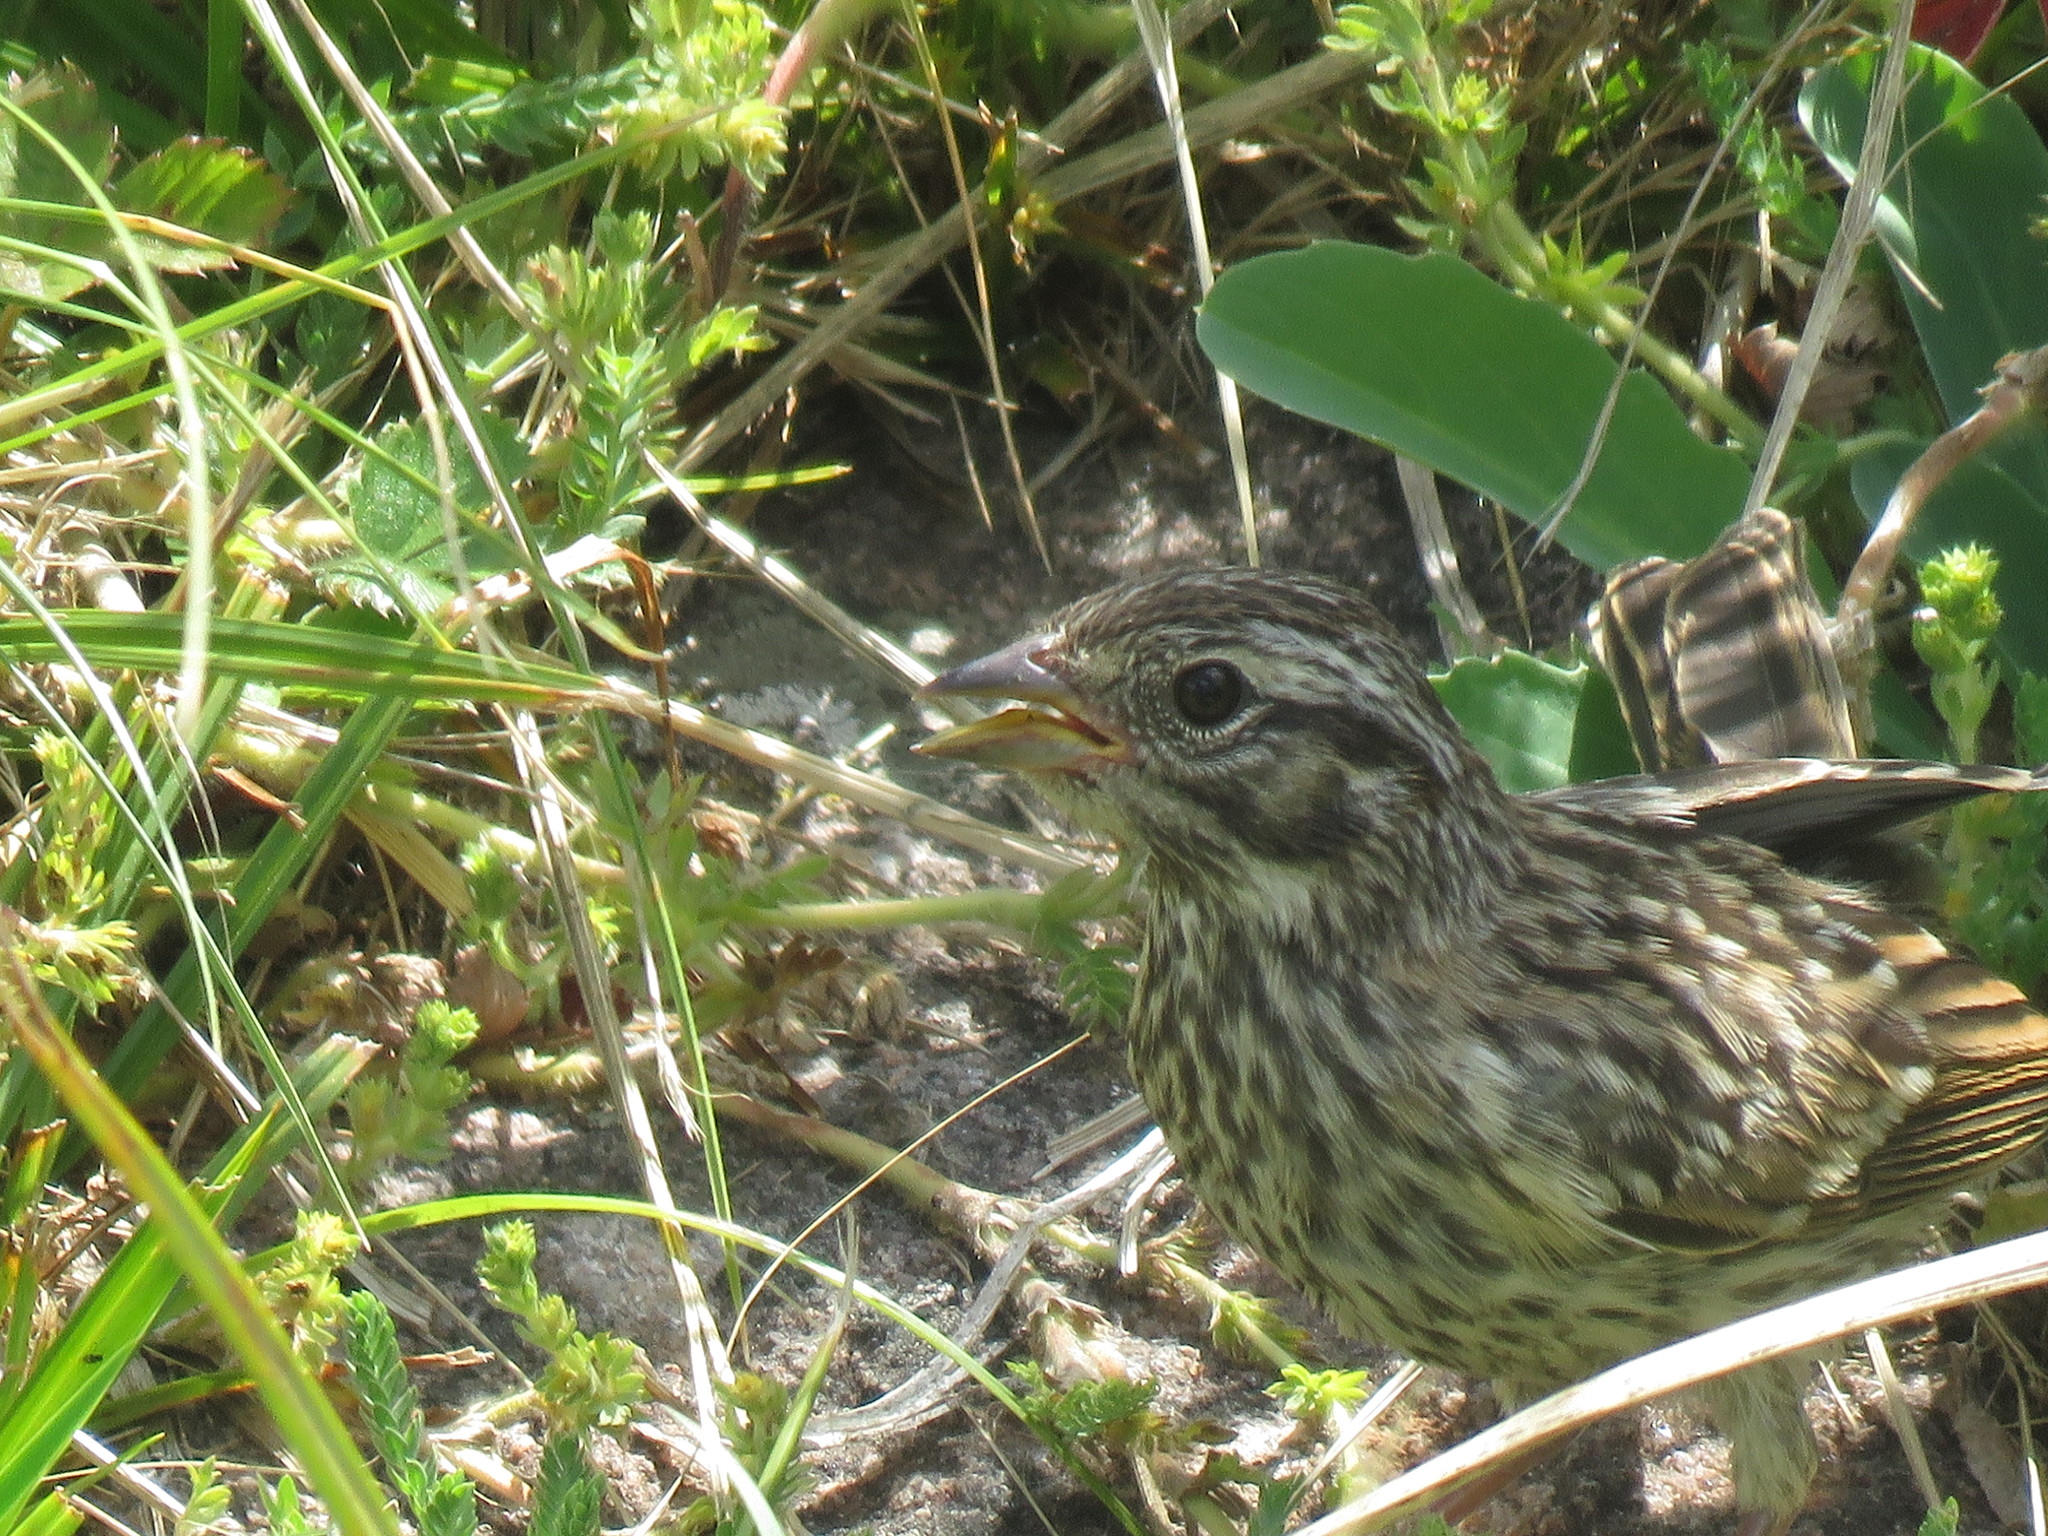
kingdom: Animalia
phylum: Chordata
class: Aves
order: Passeriformes
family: Passerellidae
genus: Zonotrichia
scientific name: Zonotrichia capensis
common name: Rufous-collared sparrow
